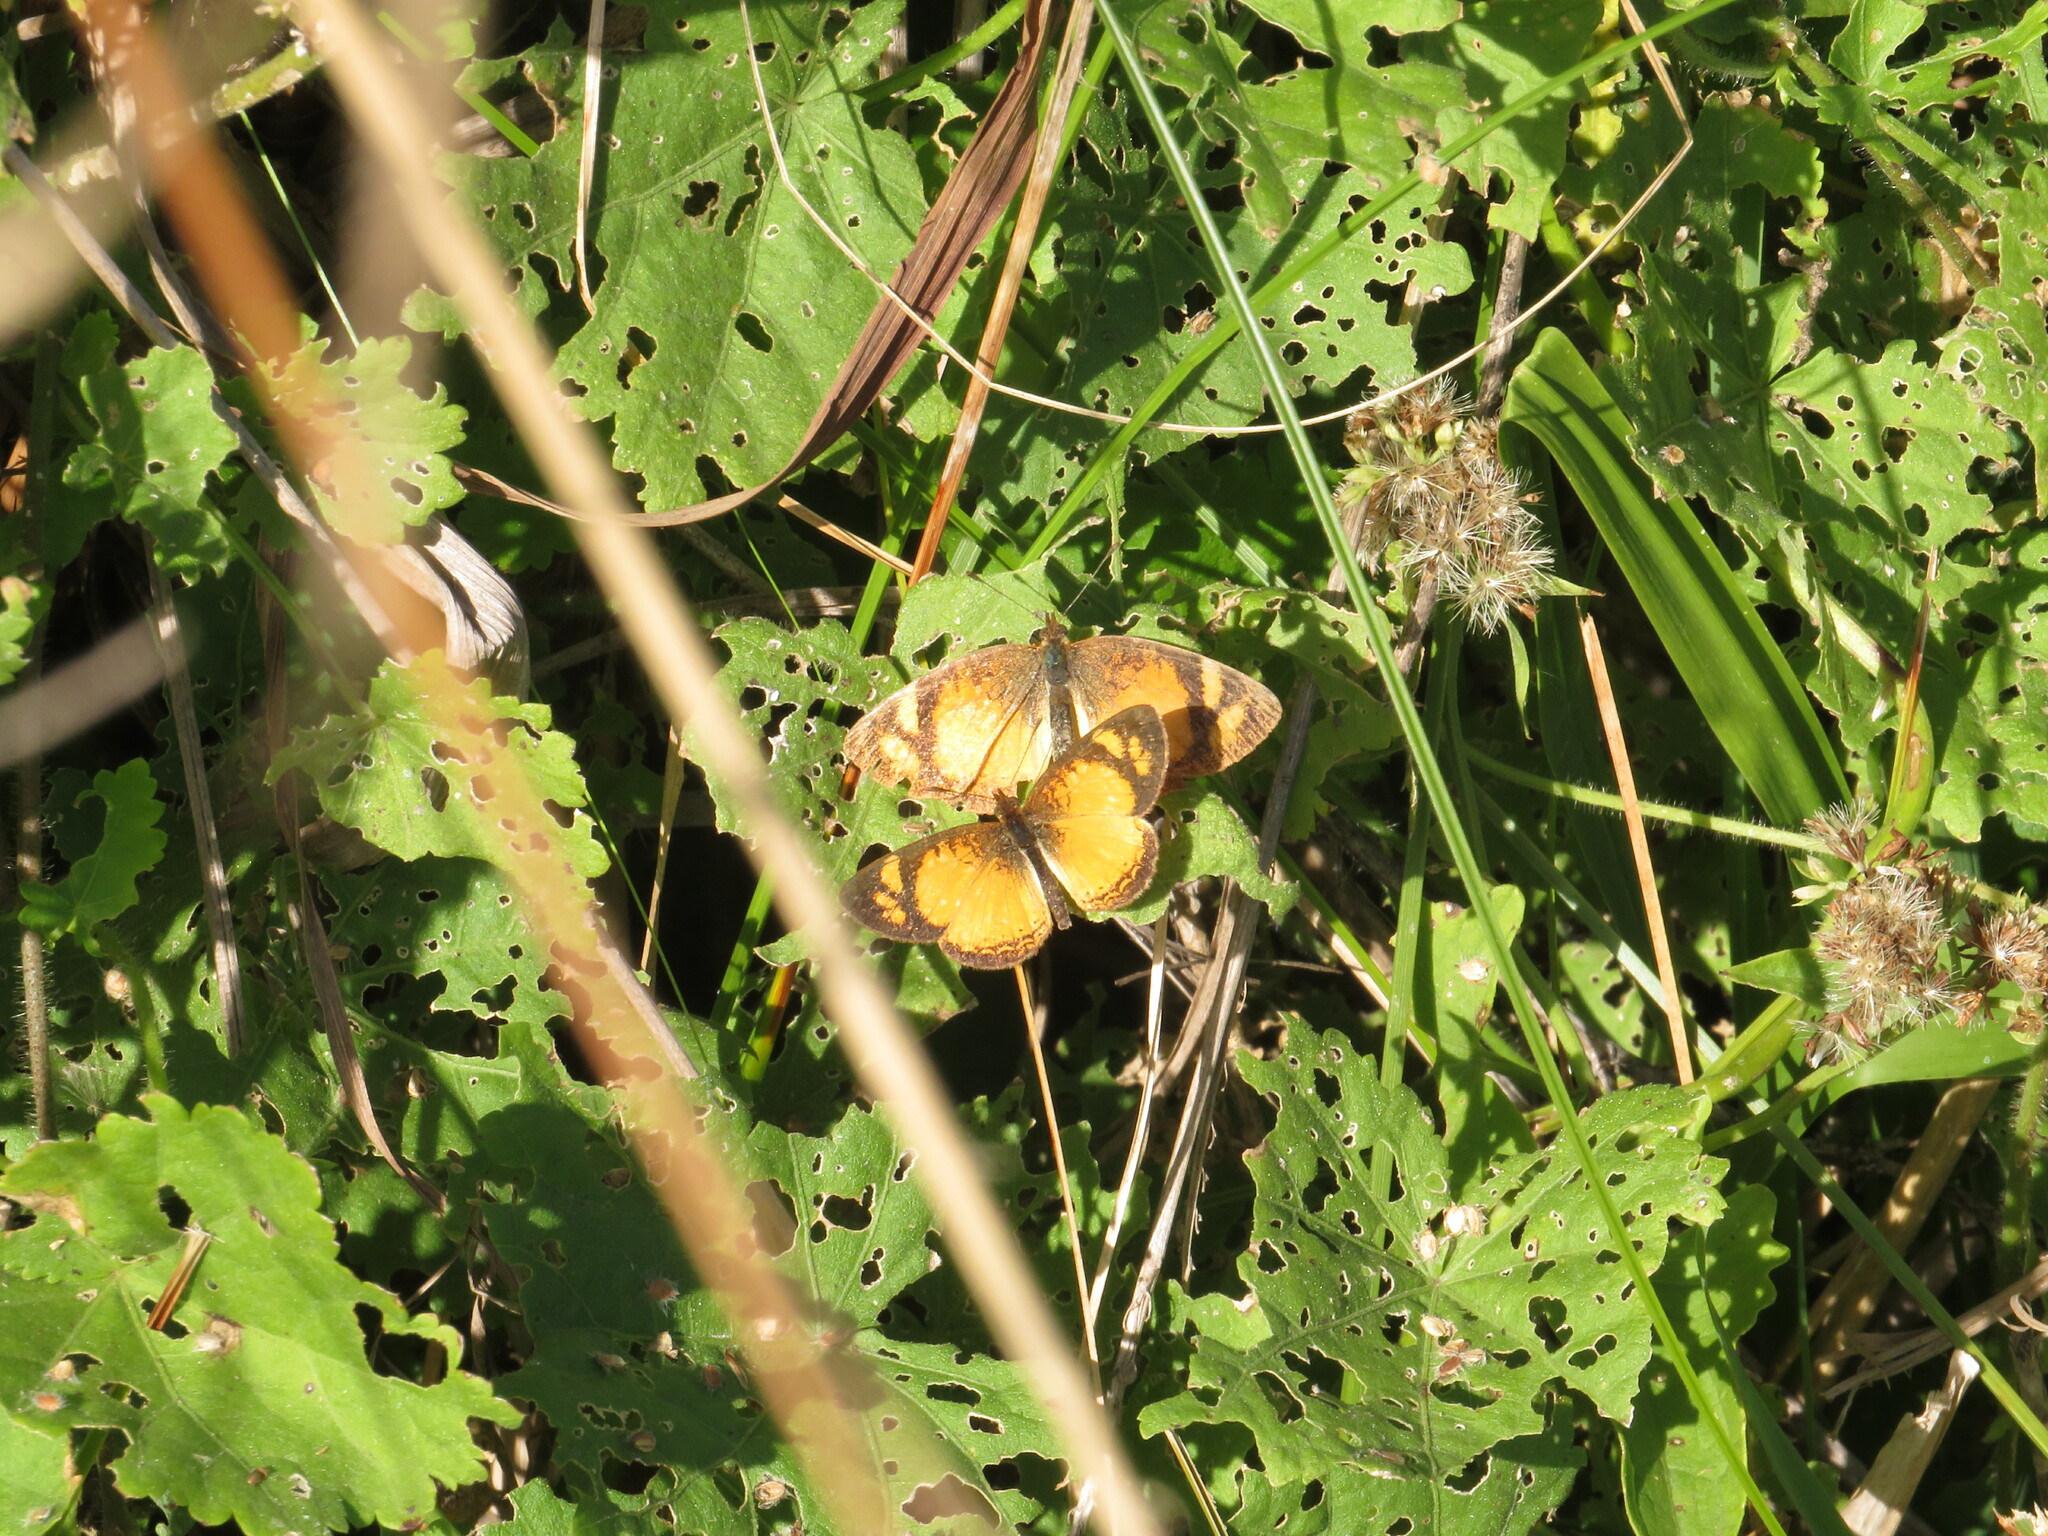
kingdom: Animalia
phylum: Arthropoda
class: Insecta
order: Lepidoptera
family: Nymphalidae
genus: Tegosa
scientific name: Tegosa claudina
